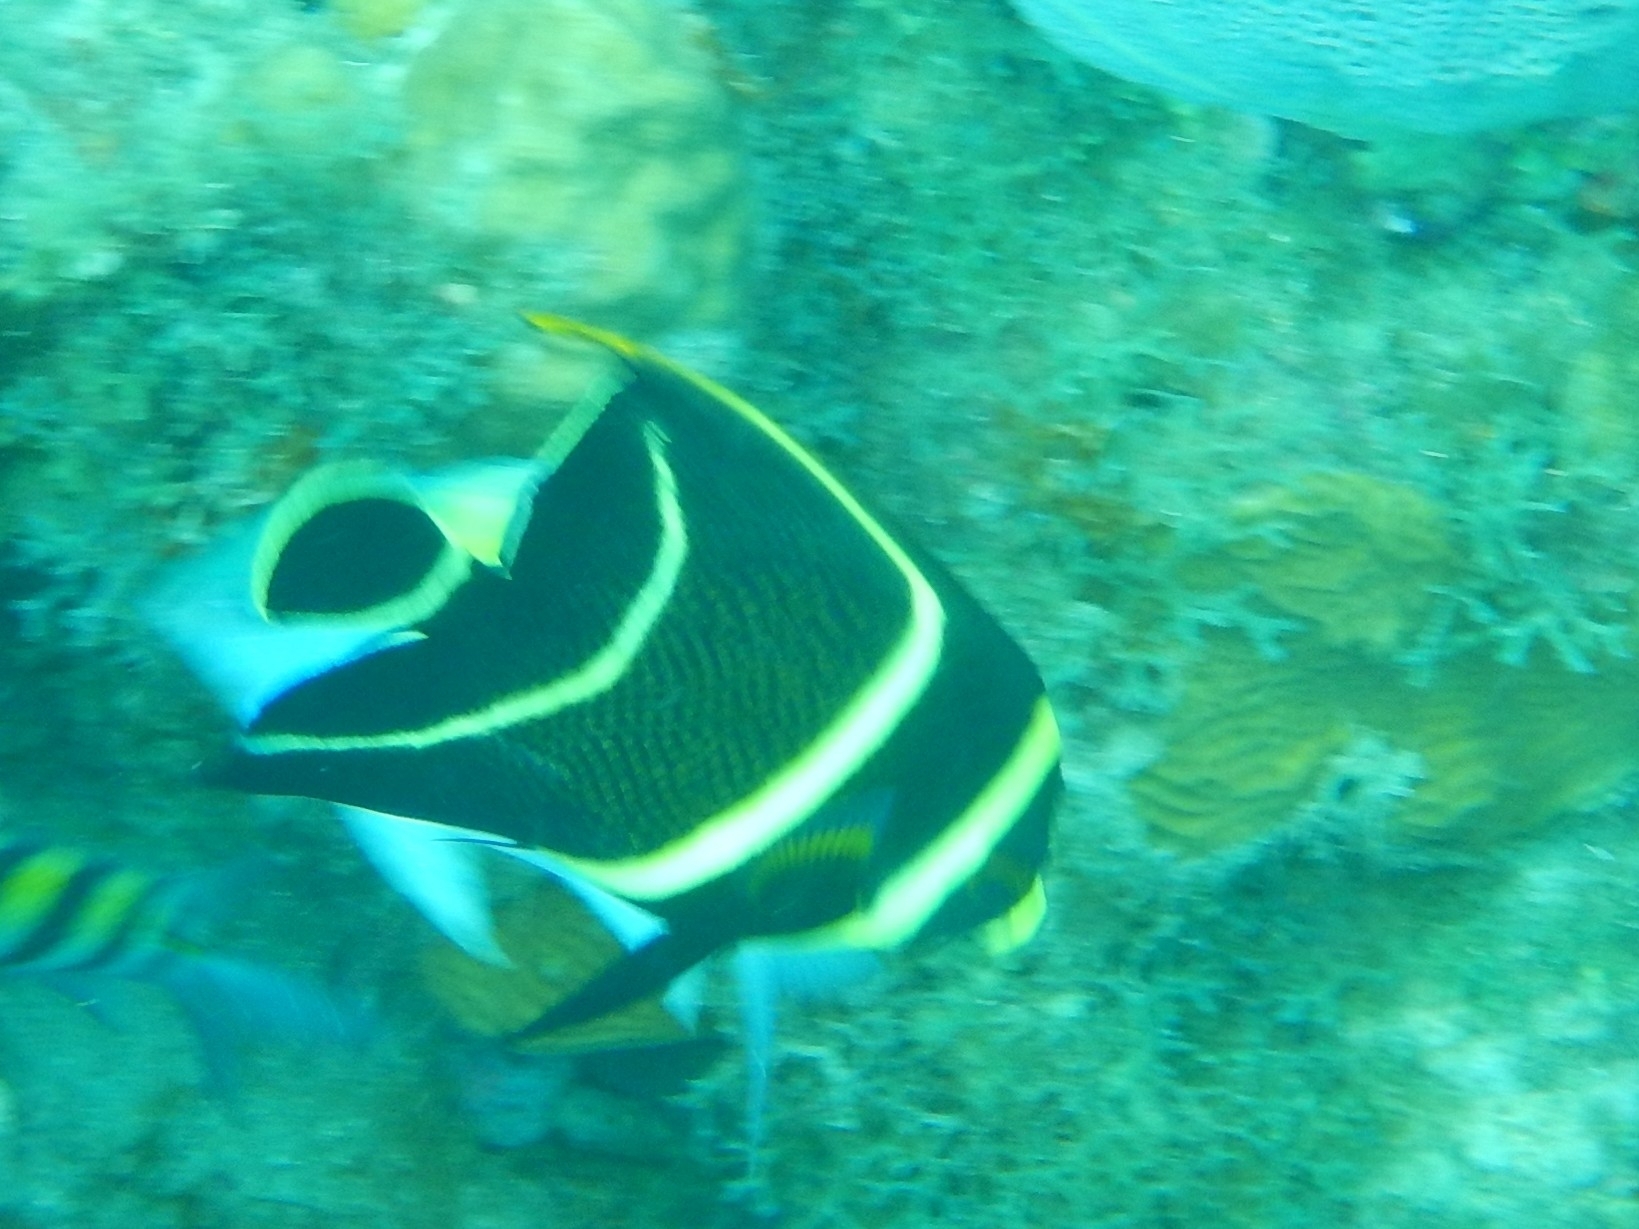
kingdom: Animalia
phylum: Chordata
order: Perciformes
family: Pomacanthidae
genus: Pomacanthus
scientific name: Pomacanthus paru
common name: French angelfish
